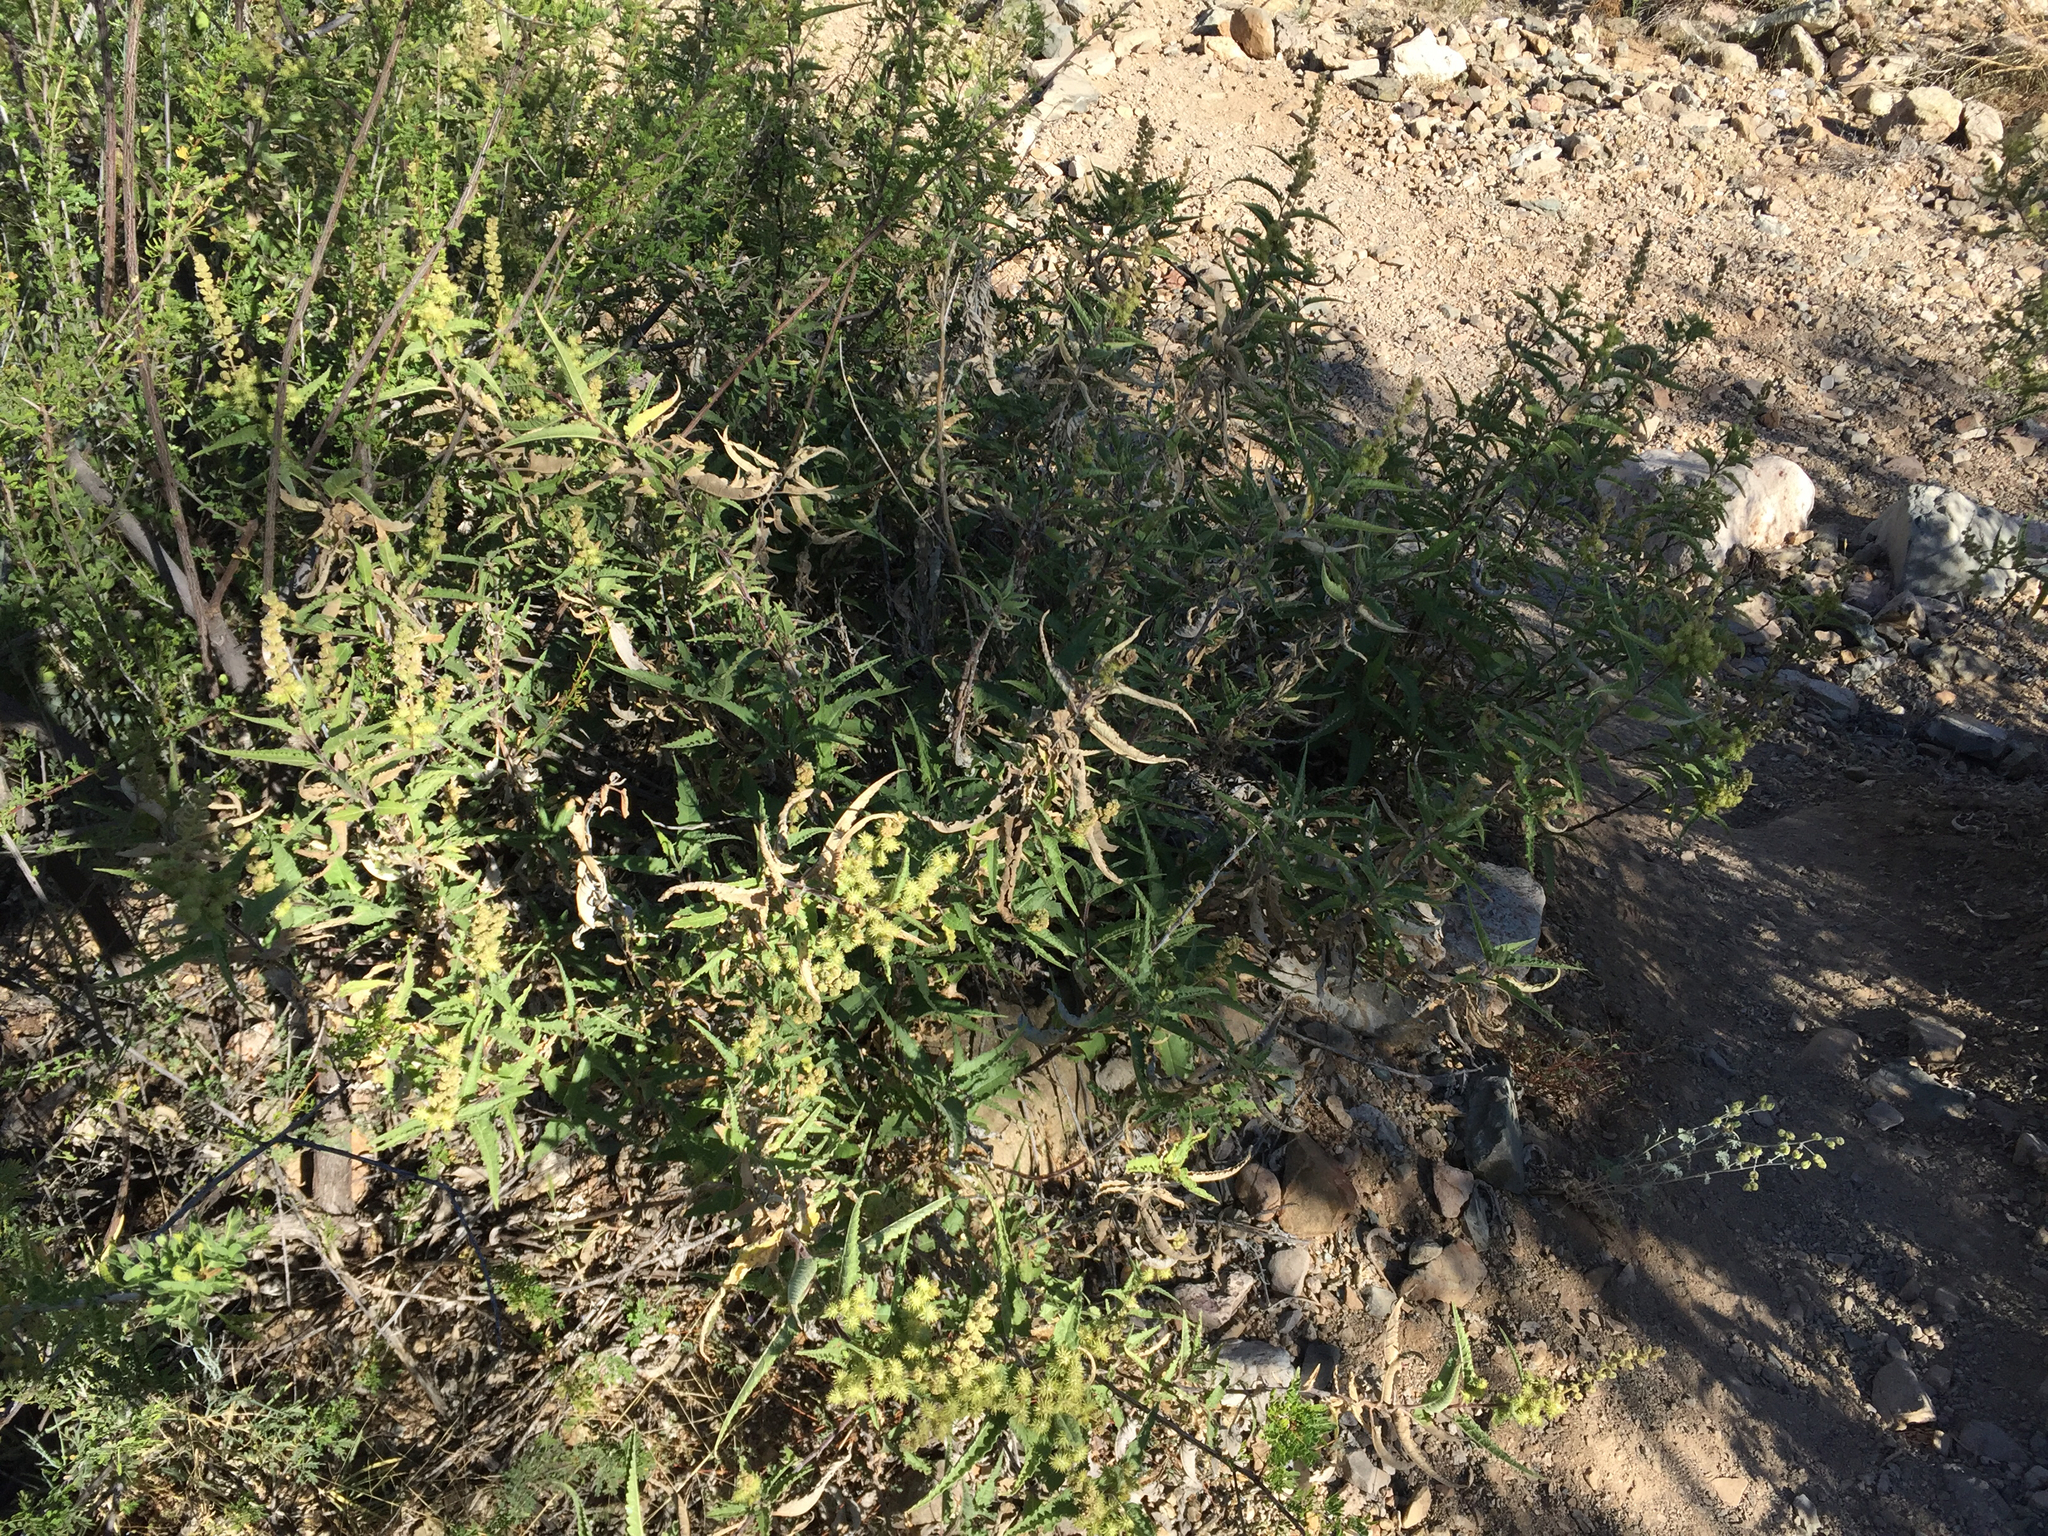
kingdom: Plantae
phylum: Tracheophyta
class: Magnoliopsida
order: Asterales
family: Asteraceae
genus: Ambrosia
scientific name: Ambrosia ambrosioides
